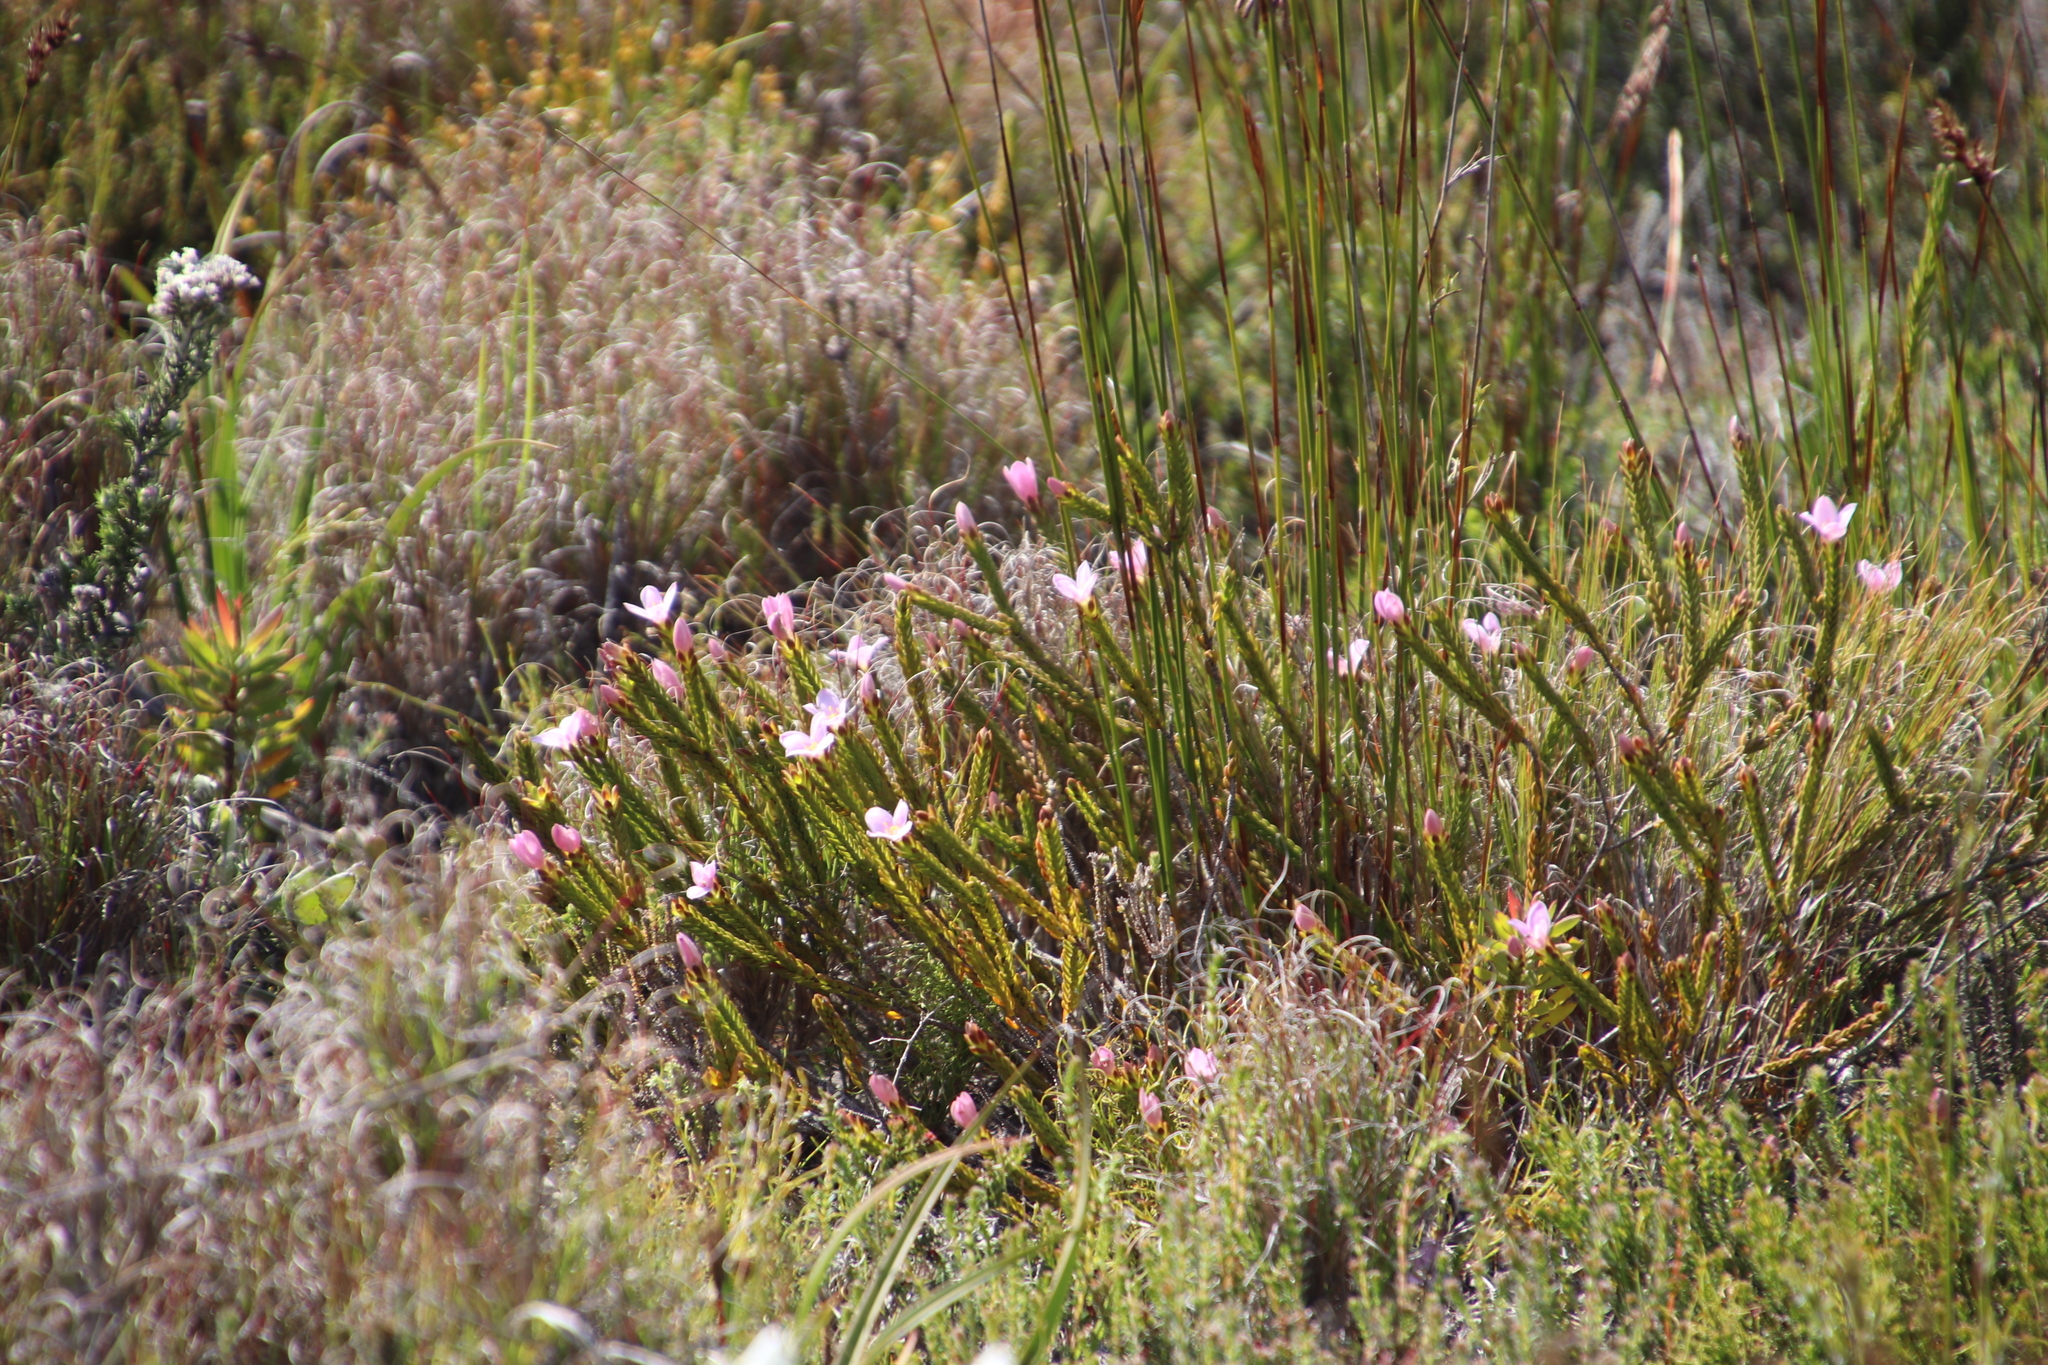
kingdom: Plantae
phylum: Tracheophyta
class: Magnoliopsida
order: Malvales
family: Thymelaeaceae
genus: Lachnaea
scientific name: Lachnaea grandiflora
